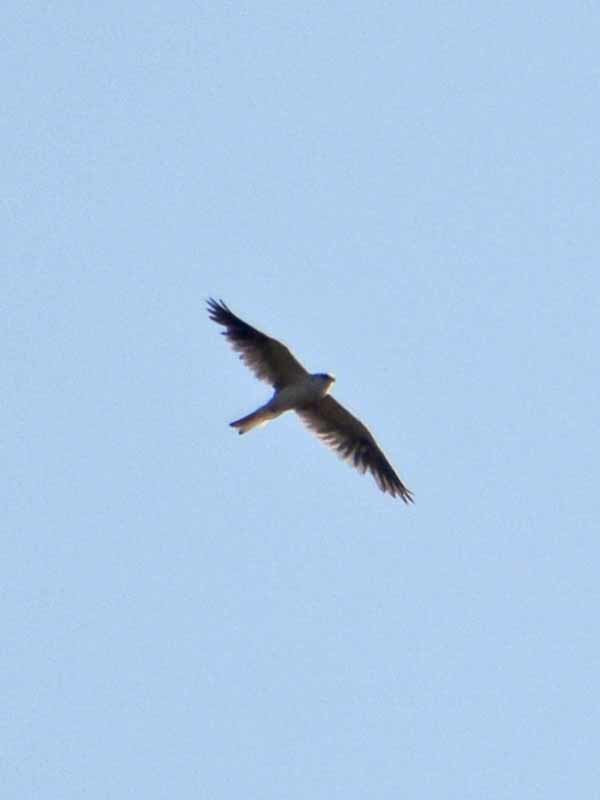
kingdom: Animalia
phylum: Chordata
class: Aves
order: Accipitriformes
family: Accipitridae
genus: Elanus
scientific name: Elanus leucurus
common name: White-tailed kite
